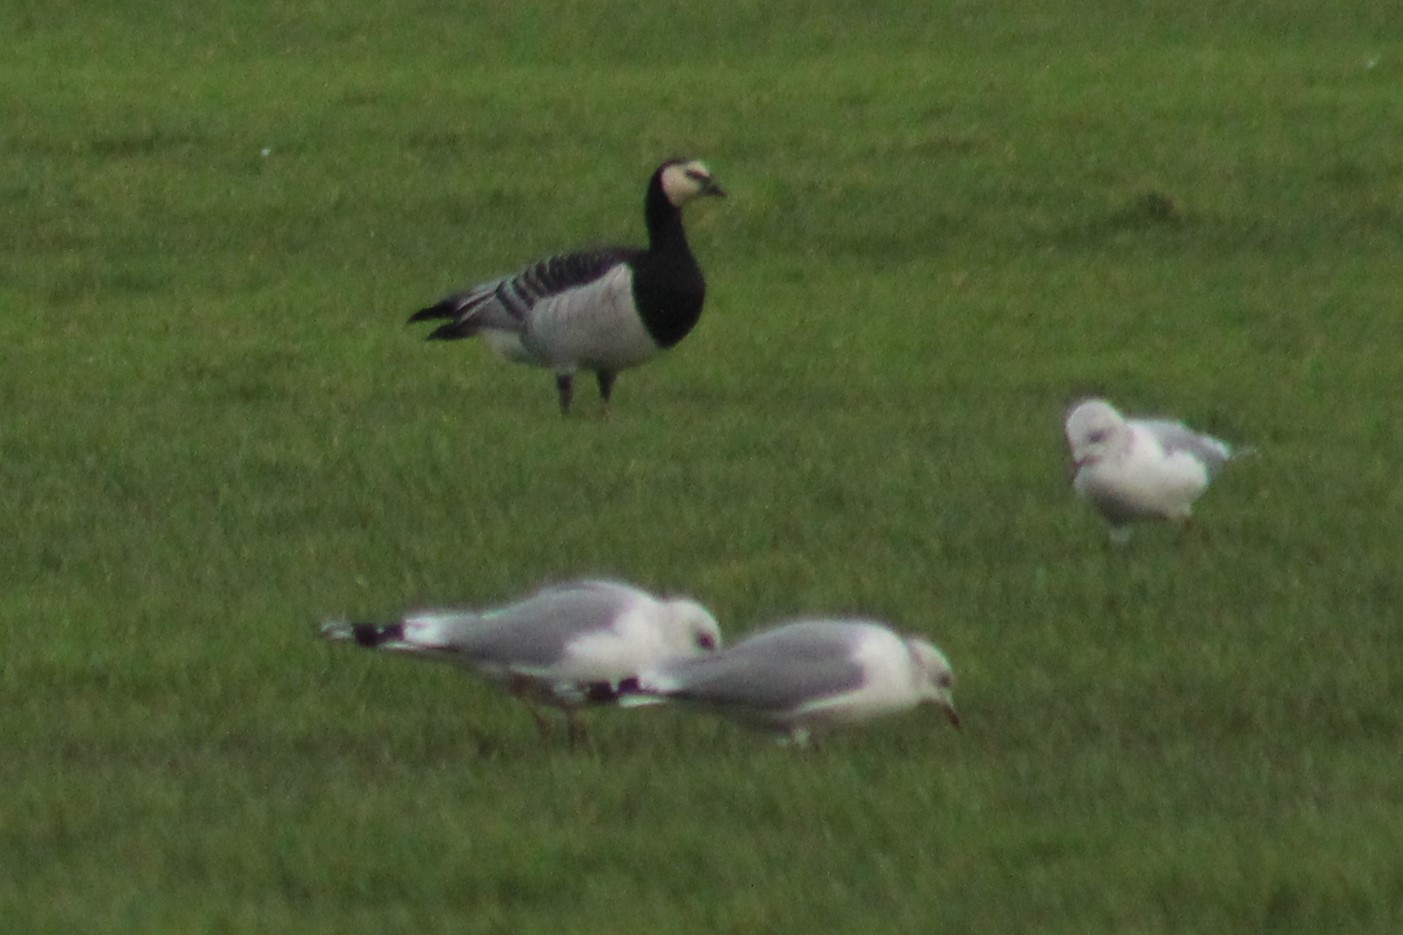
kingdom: Animalia
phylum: Chordata
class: Aves
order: Anseriformes
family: Anatidae
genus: Branta
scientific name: Branta leucopsis
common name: Barnacle goose
